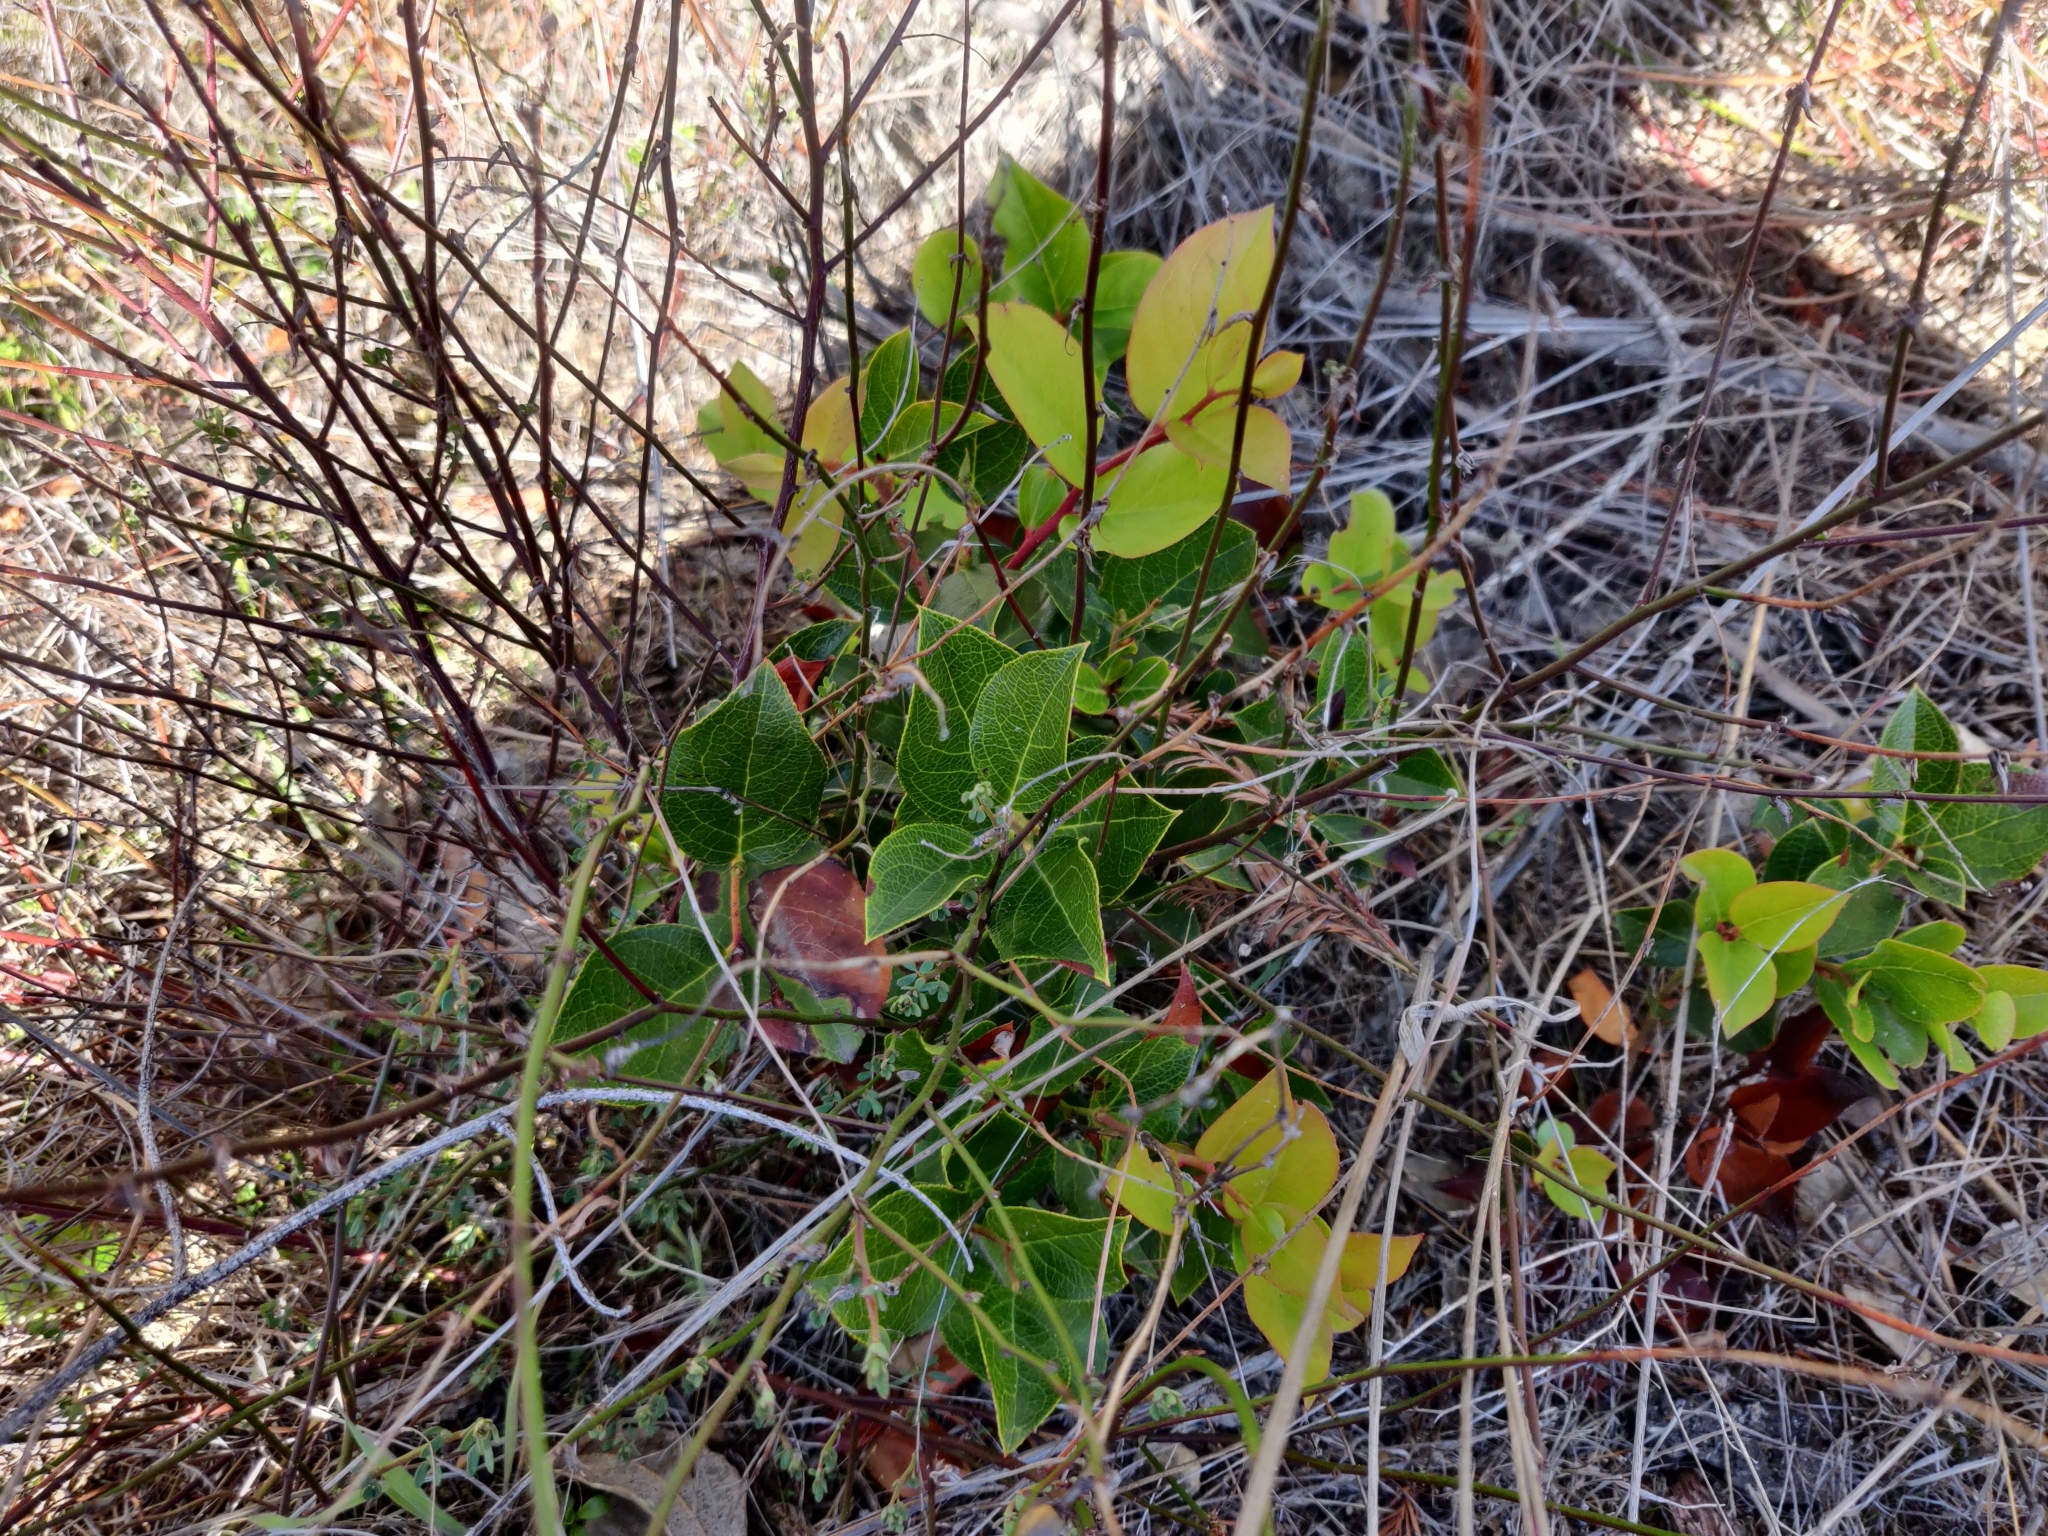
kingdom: Plantae
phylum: Tracheophyta
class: Magnoliopsida
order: Ericales
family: Ericaceae
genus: Gaultheria
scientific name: Gaultheria shallon
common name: Shallon
